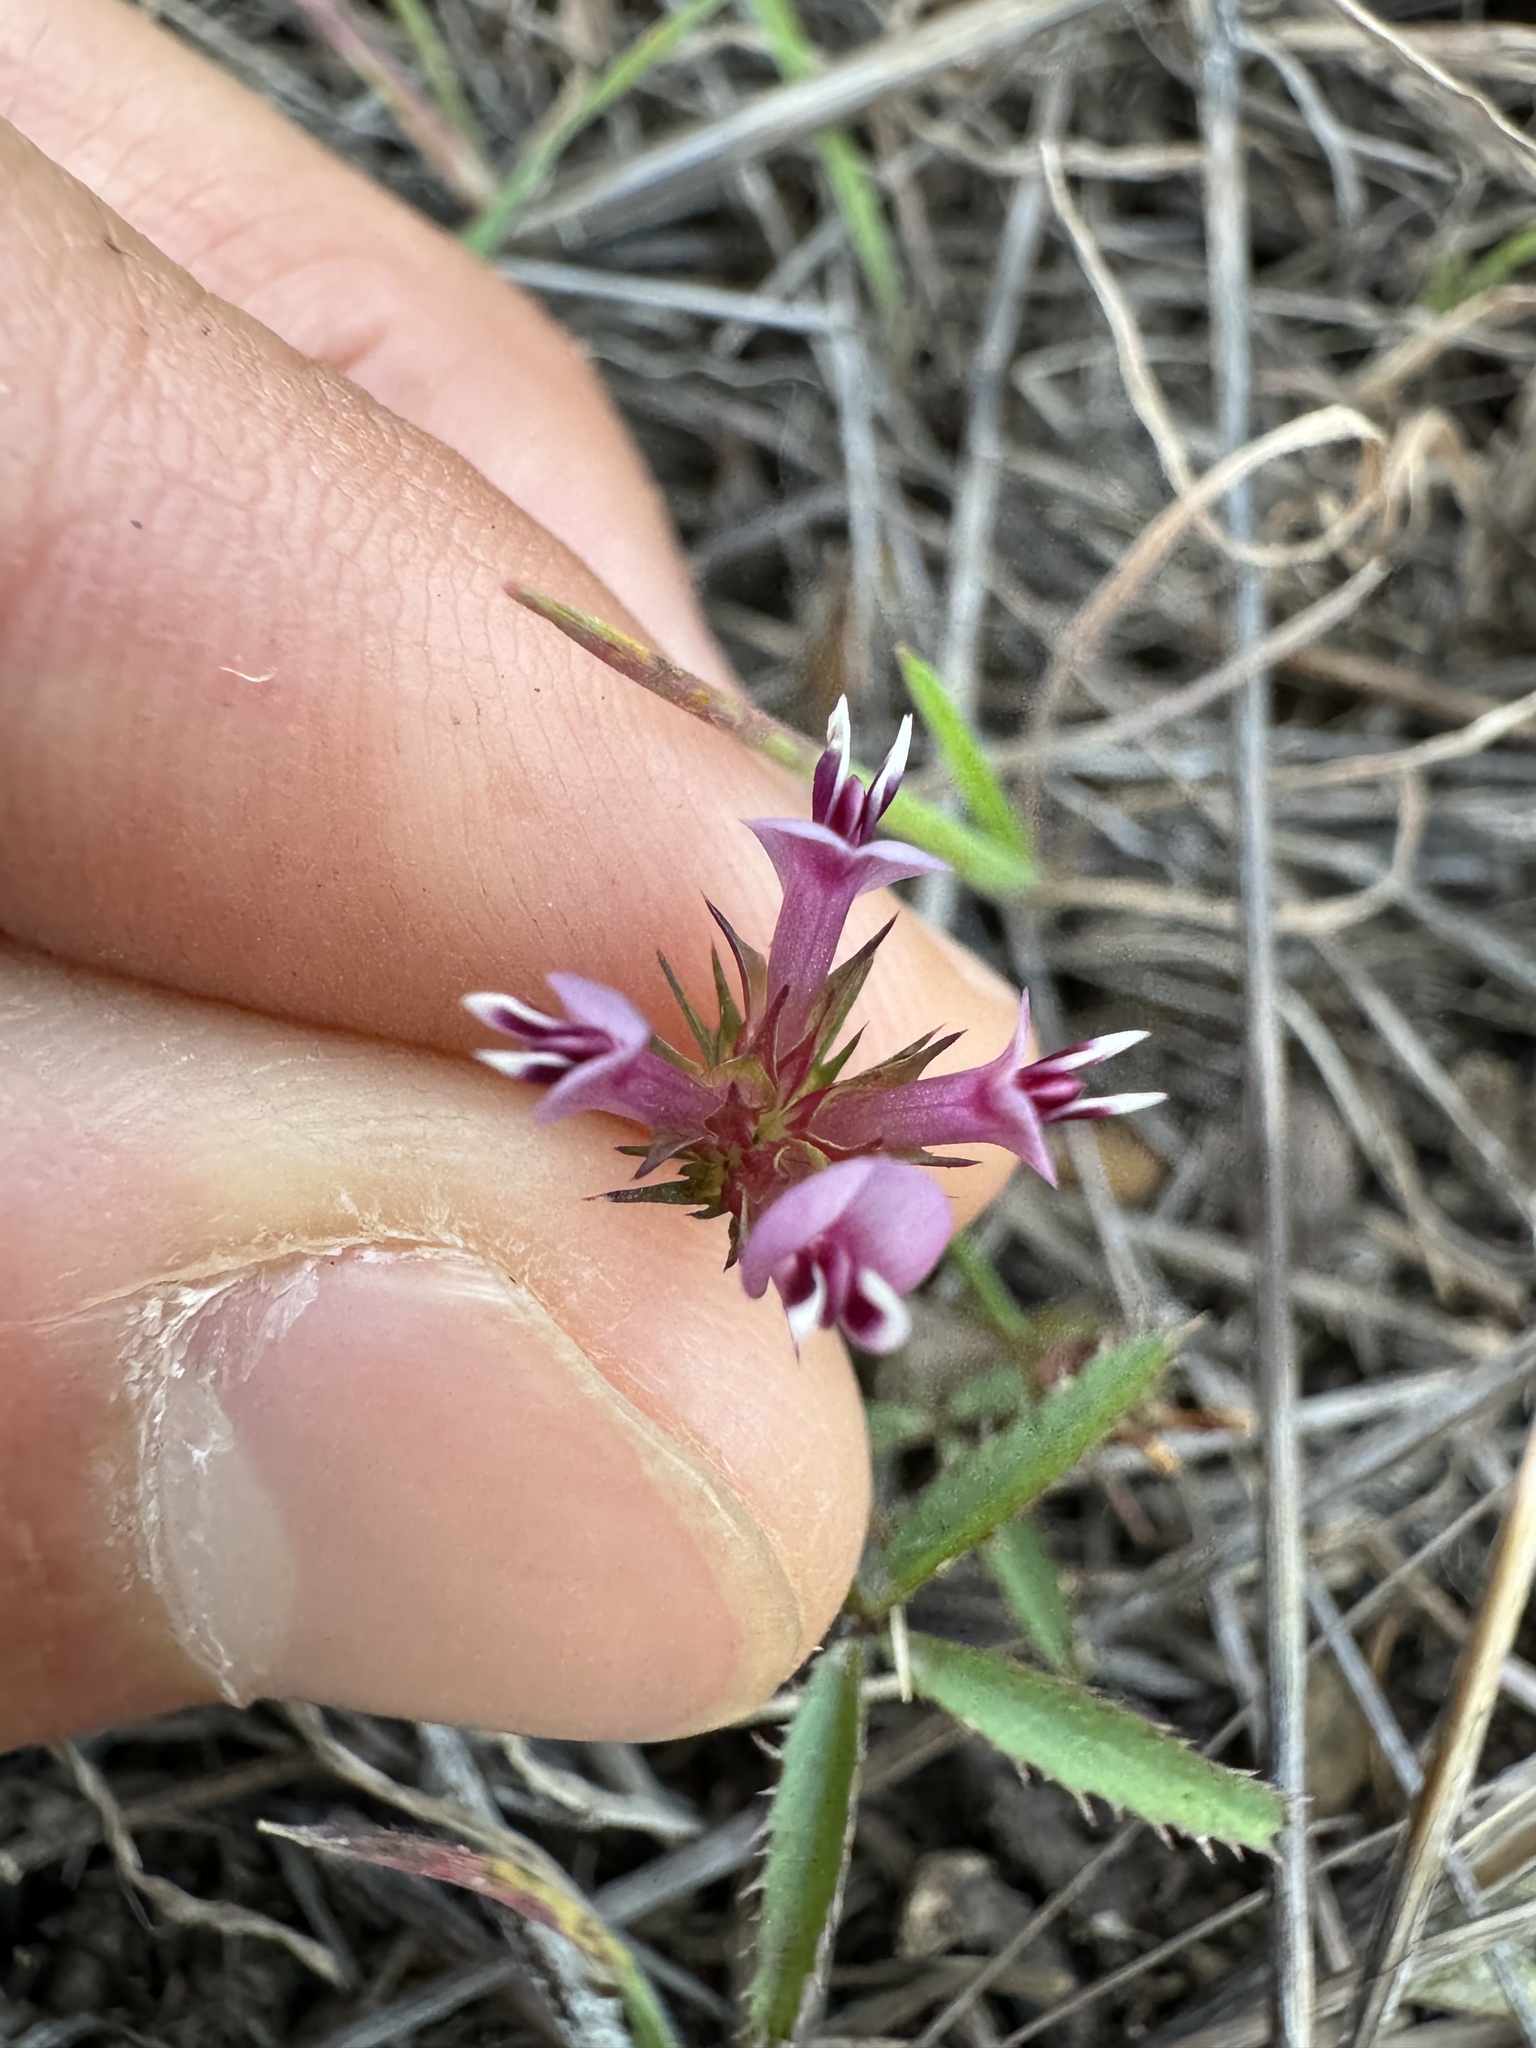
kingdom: Plantae
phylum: Tracheophyta
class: Magnoliopsida
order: Fabales
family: Fabaceae
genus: Trifolium
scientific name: Trifolium willdenovii
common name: Tomcat clover
